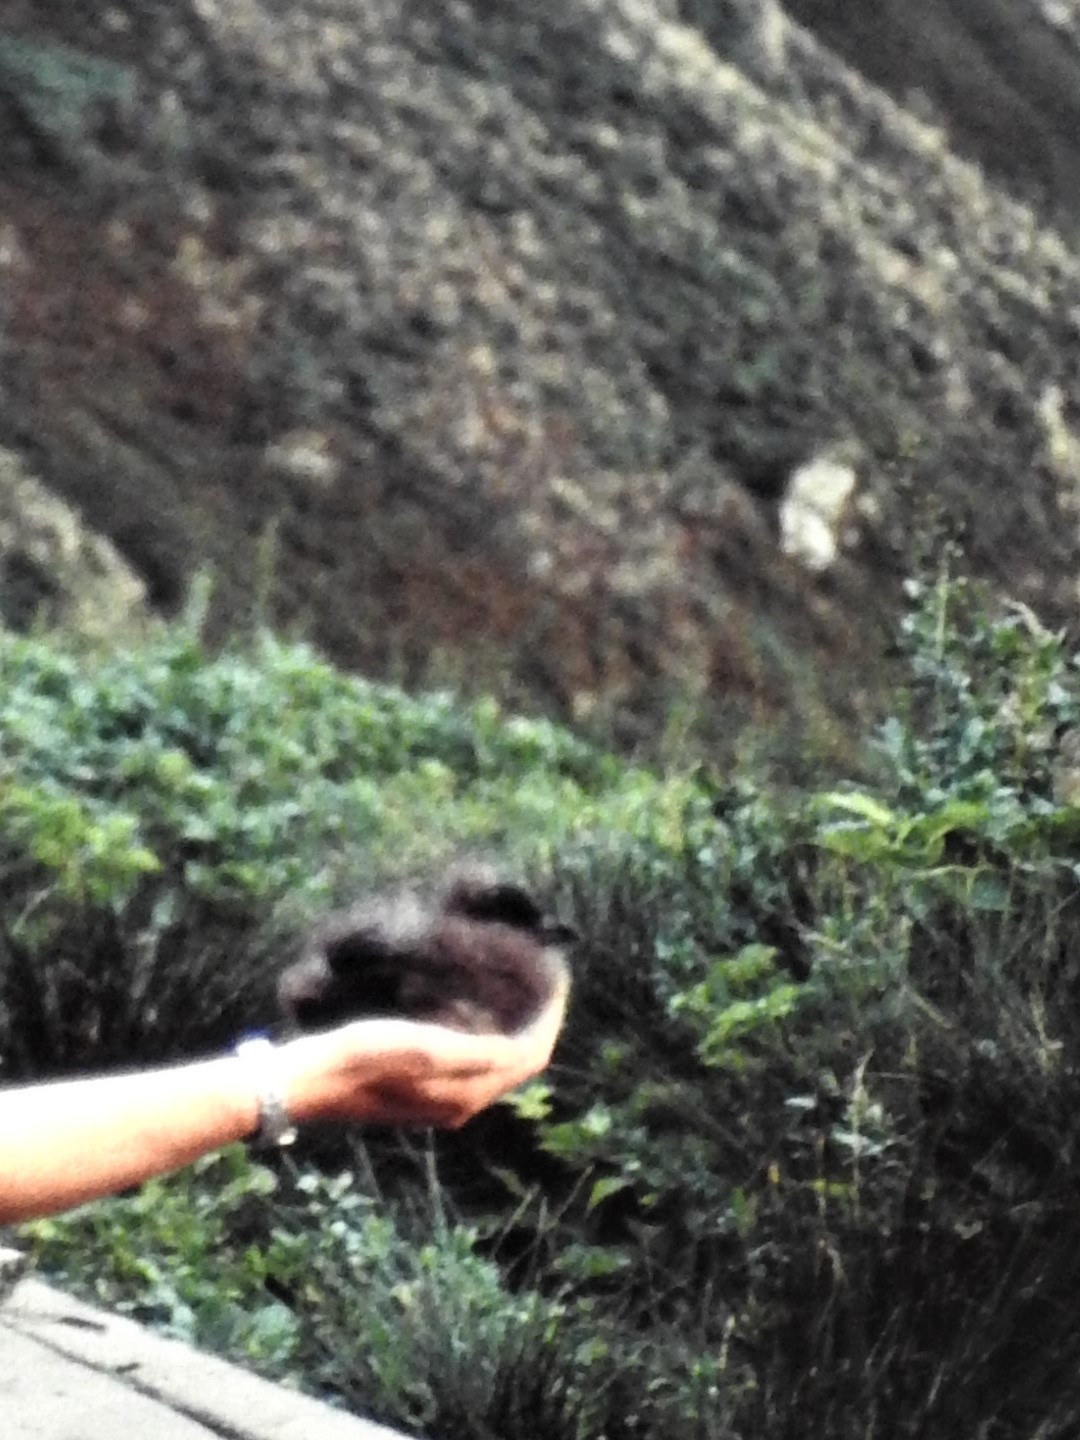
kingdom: Animalia
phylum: Chordata
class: Aves
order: Charadriiformes
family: Alcidae
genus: Ptychoramphus
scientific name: Ptychoramphus aleuticus
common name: Cassin's auklet
